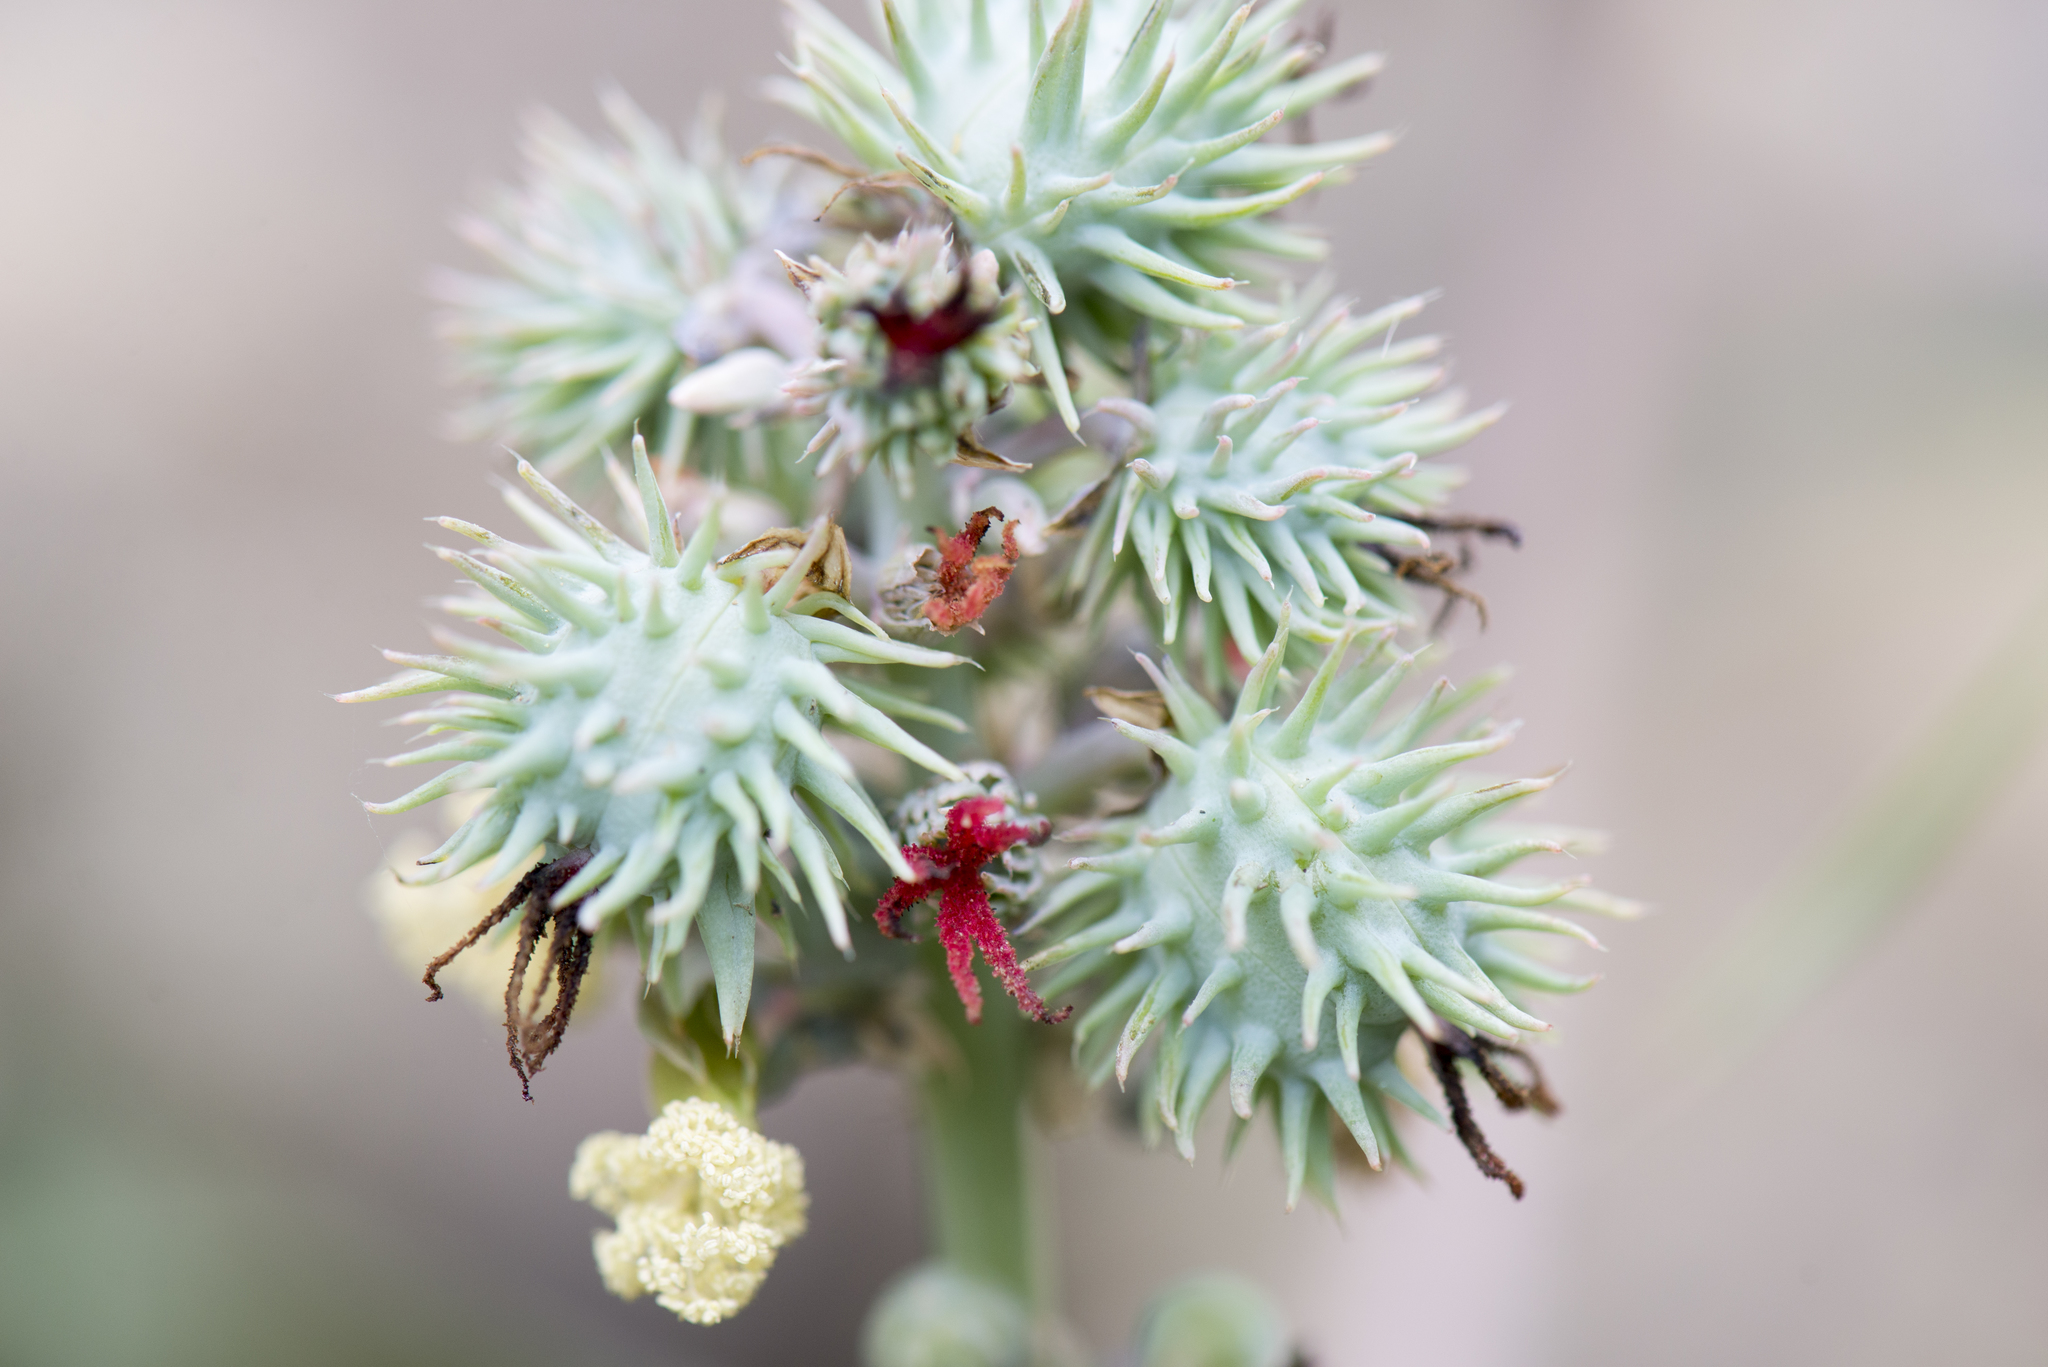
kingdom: Plantae
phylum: Tracheophyta
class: Magnoliopsida
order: Malpighiales
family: Euphorbiaceae
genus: Ricinus
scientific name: Ricinus communis
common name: Castor-oil-plant
